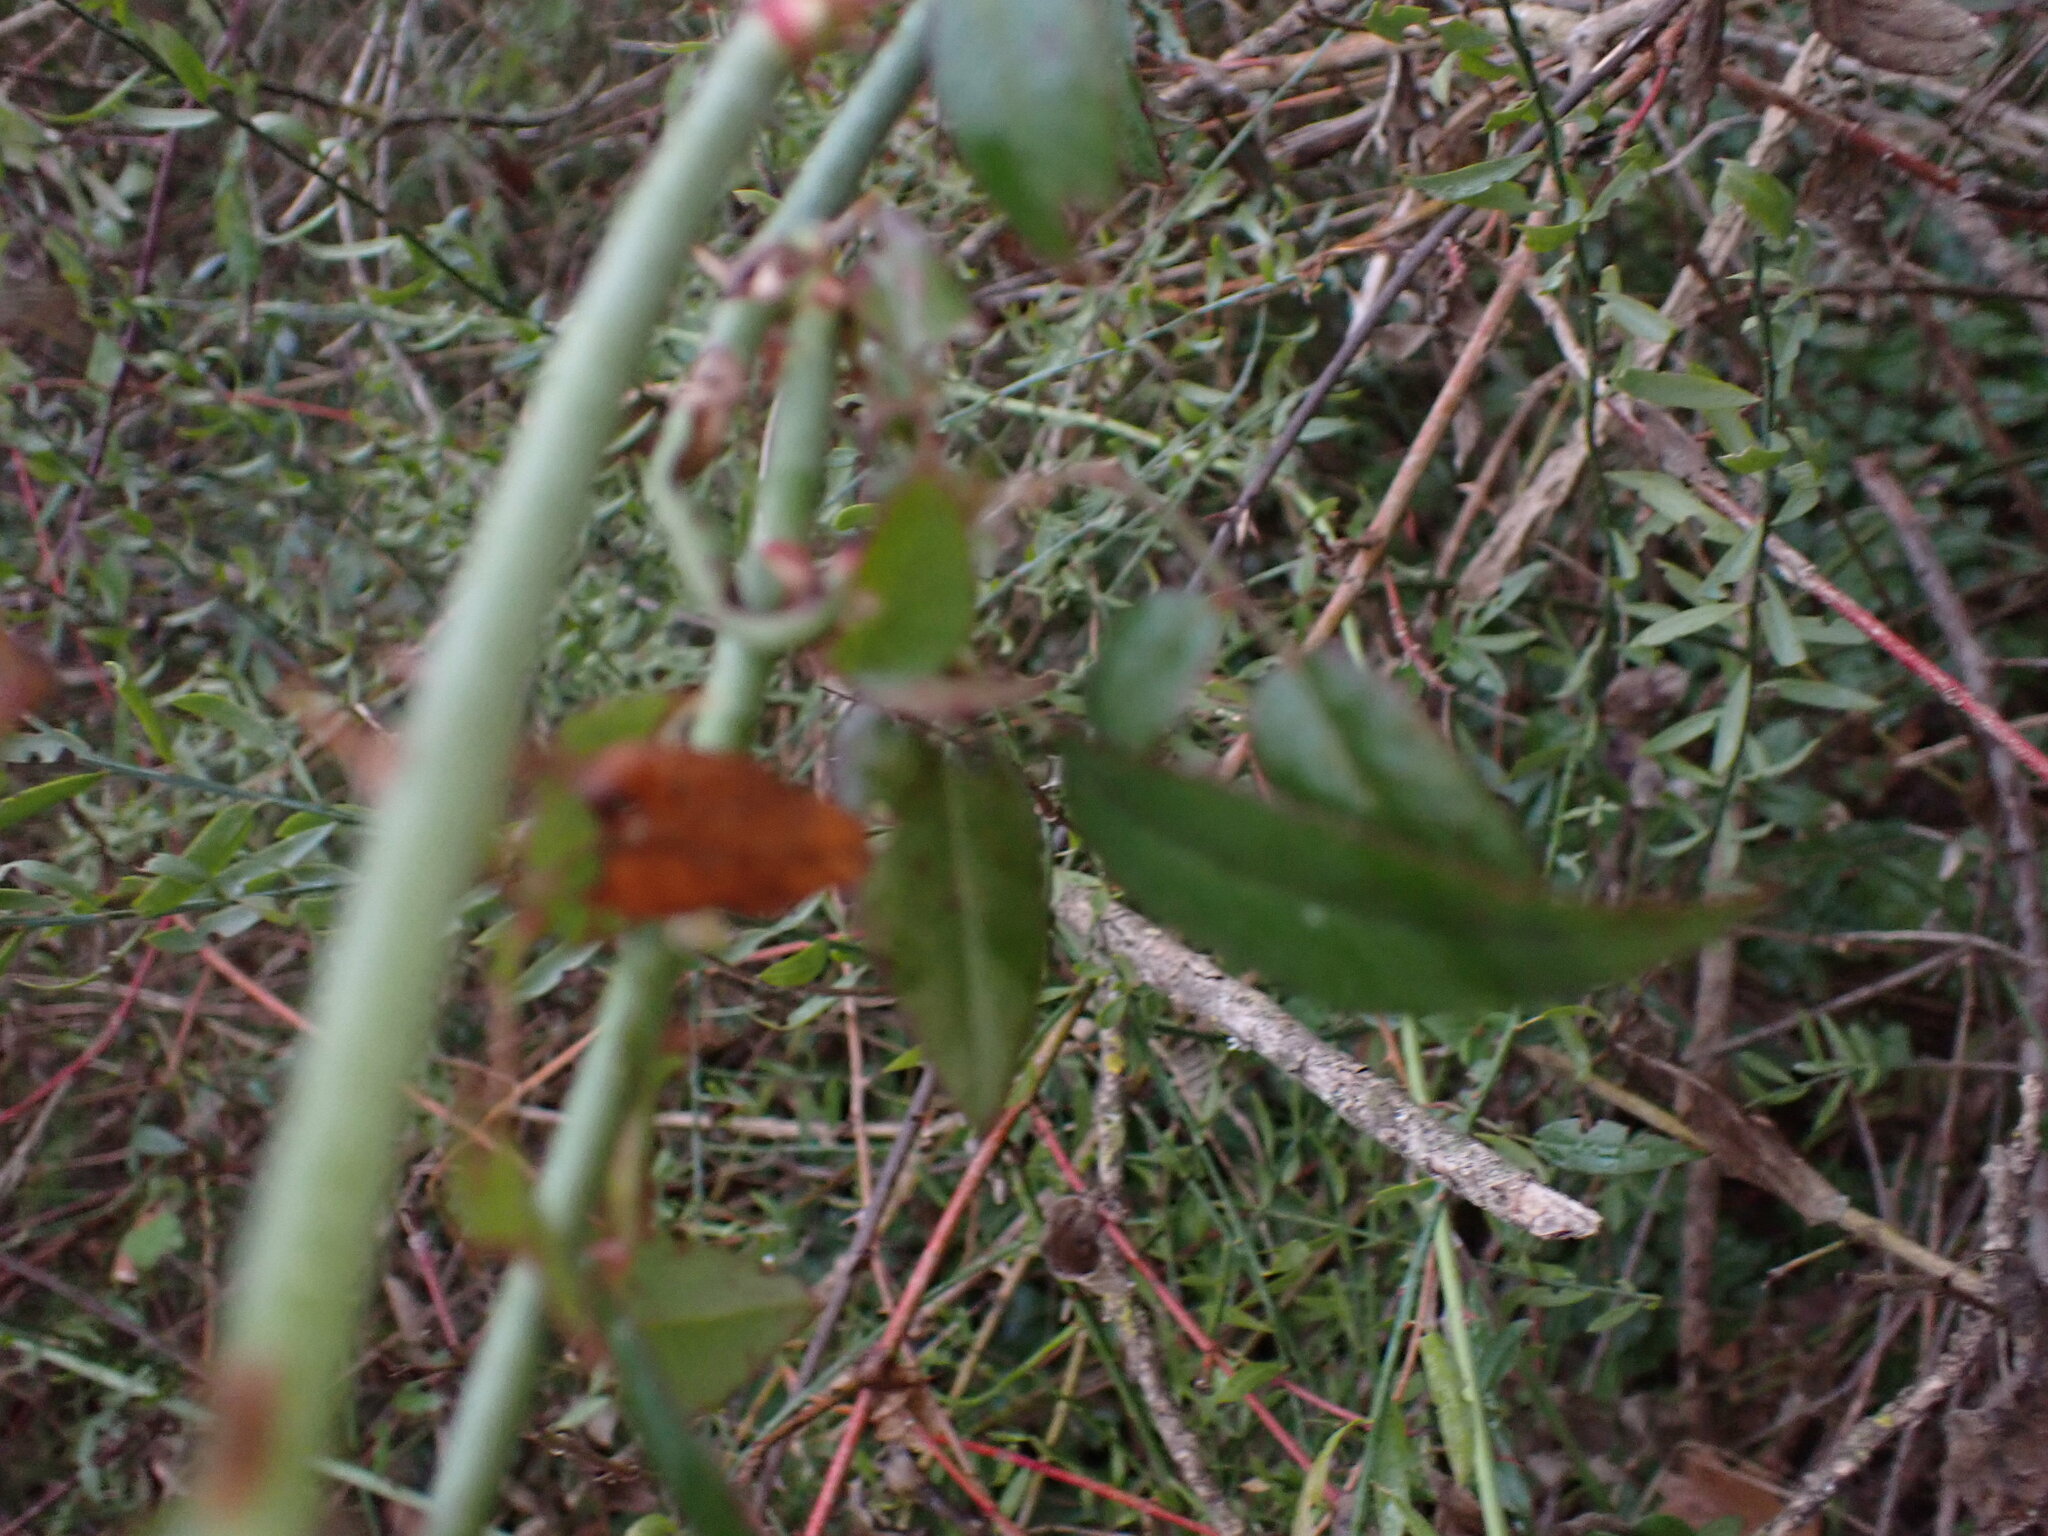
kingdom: Plantae
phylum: Tracheophyta
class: Magnoliopsida
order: Rosales
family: Rosaceae
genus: Rosa
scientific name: Rosa sempervirens
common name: Evergreen rose
